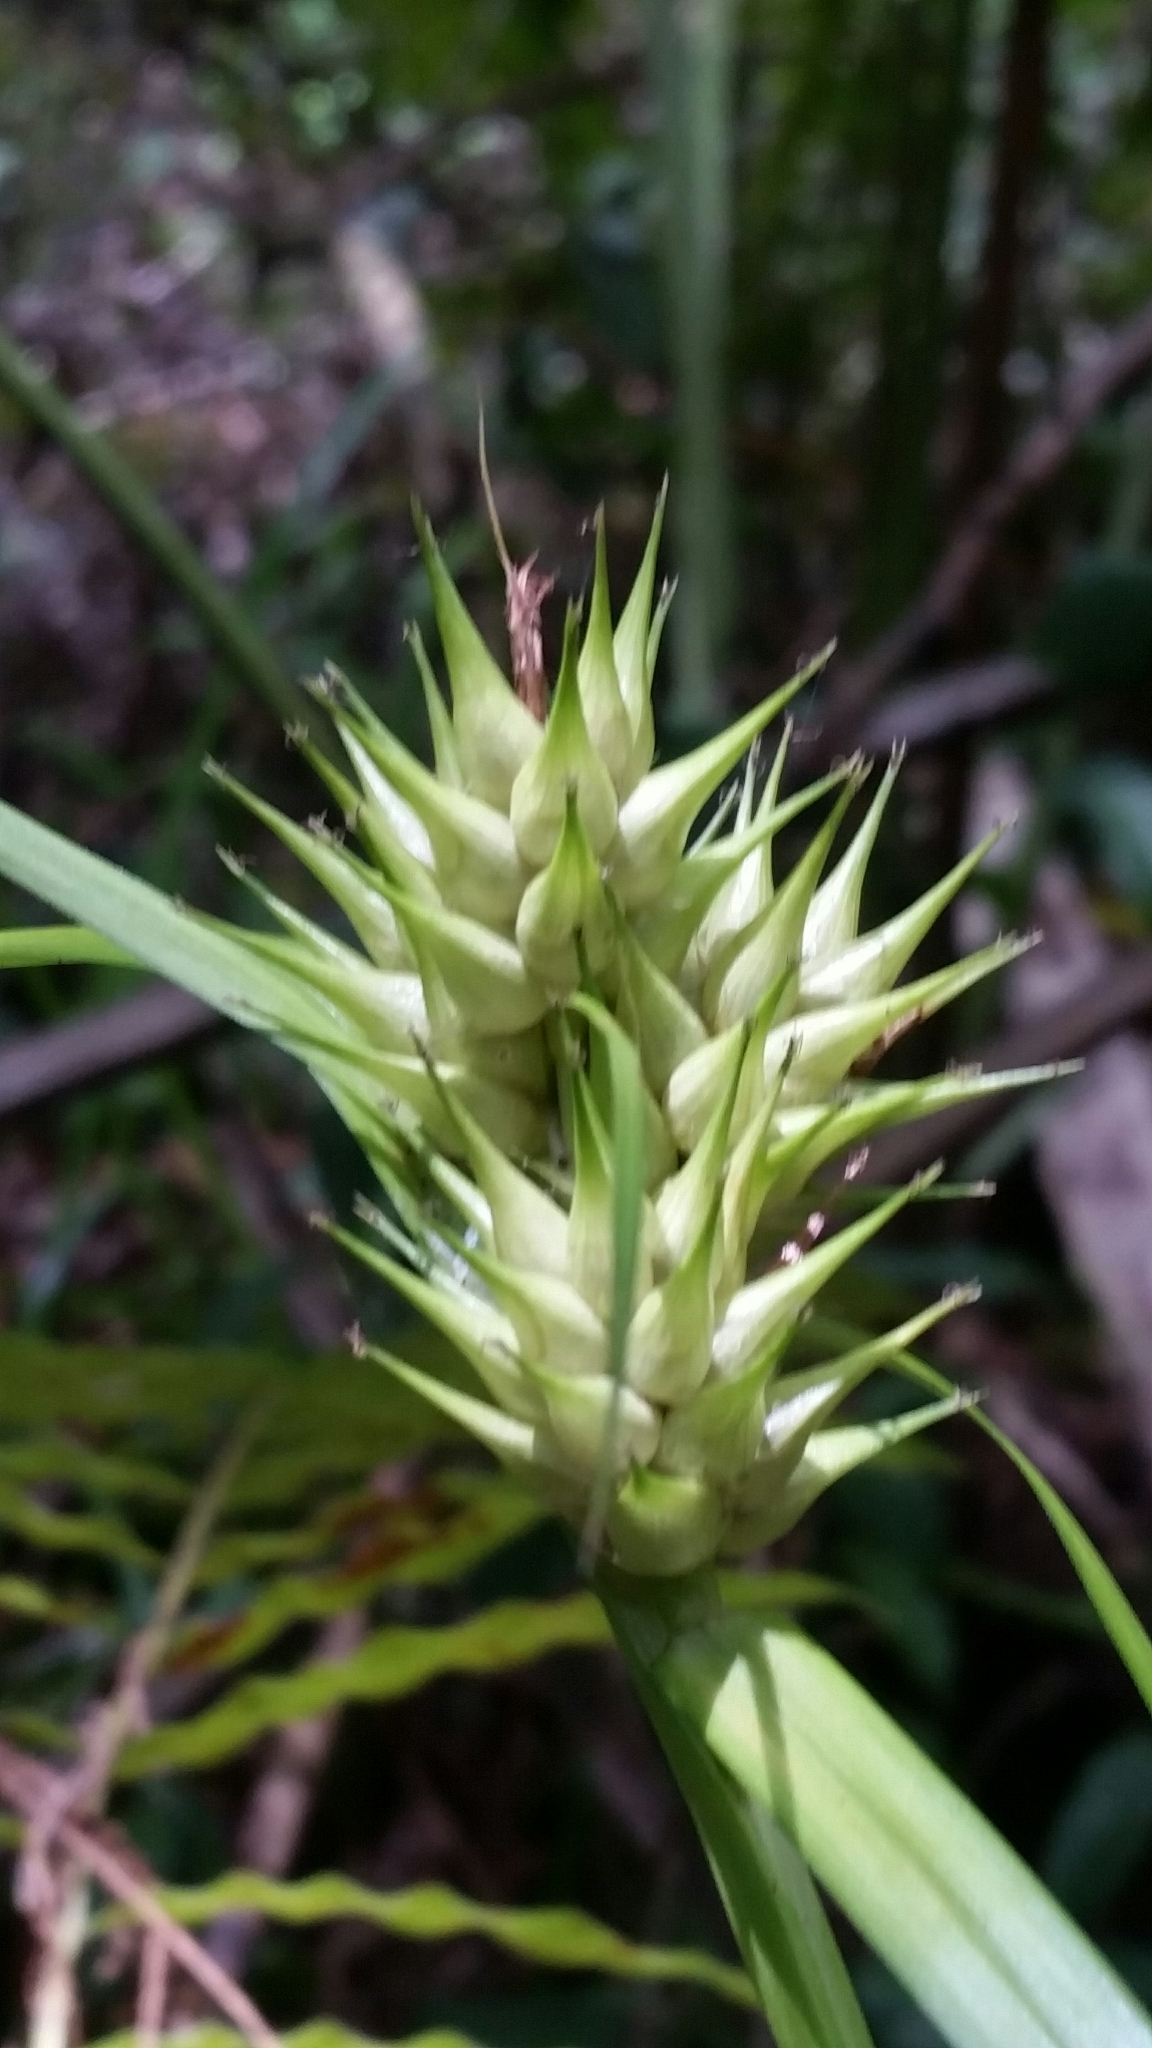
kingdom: Plantae
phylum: Tracheophyta
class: Liliopsida
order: Poales
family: Cyperaceae
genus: Carex
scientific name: Carex lupuliformis
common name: False hop sedge
